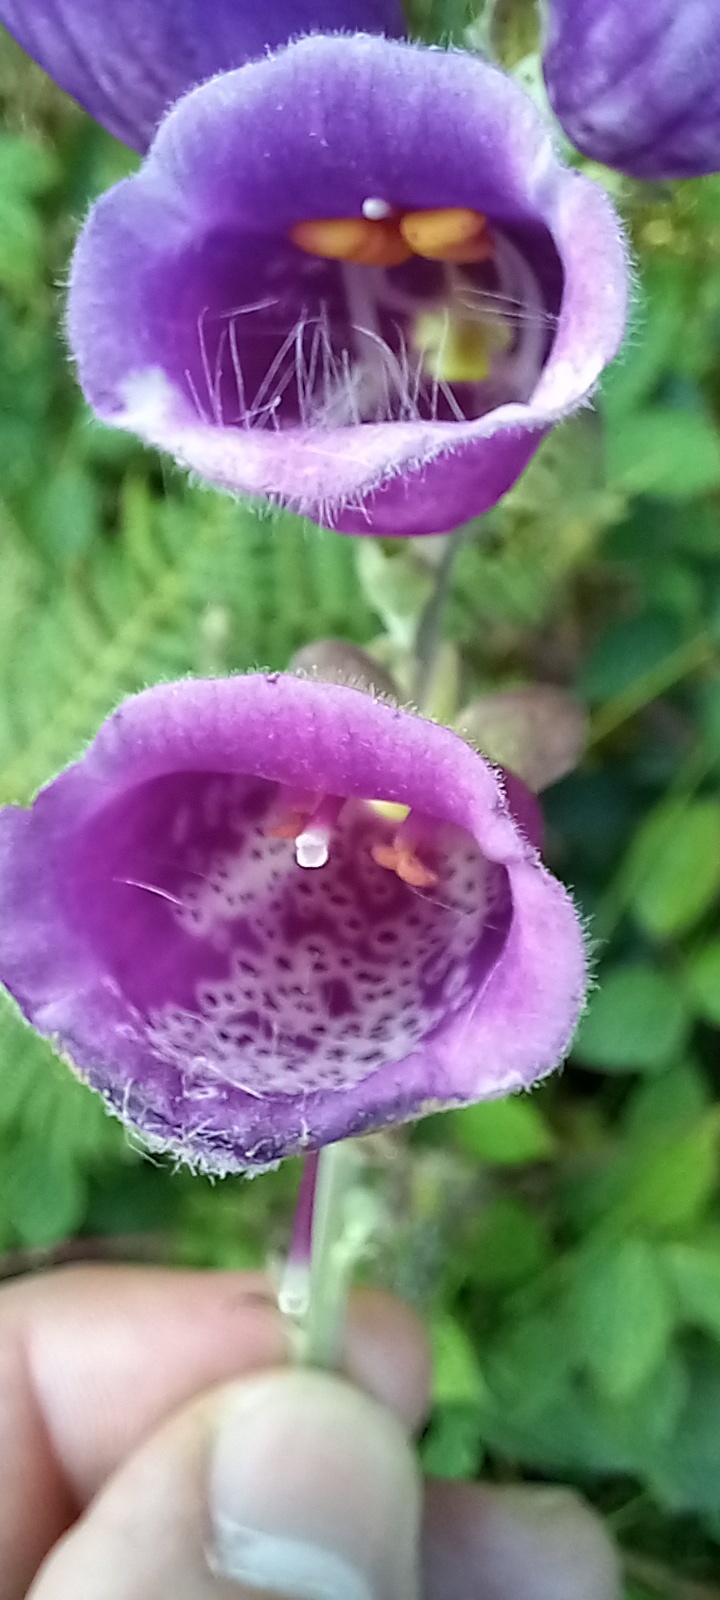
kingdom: Plantae
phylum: Tracheophyta
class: Magnoliopsida
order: Lamiales
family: Plantaginaceae
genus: Digitalis
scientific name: Digitalis purpurea
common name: Foxglove
